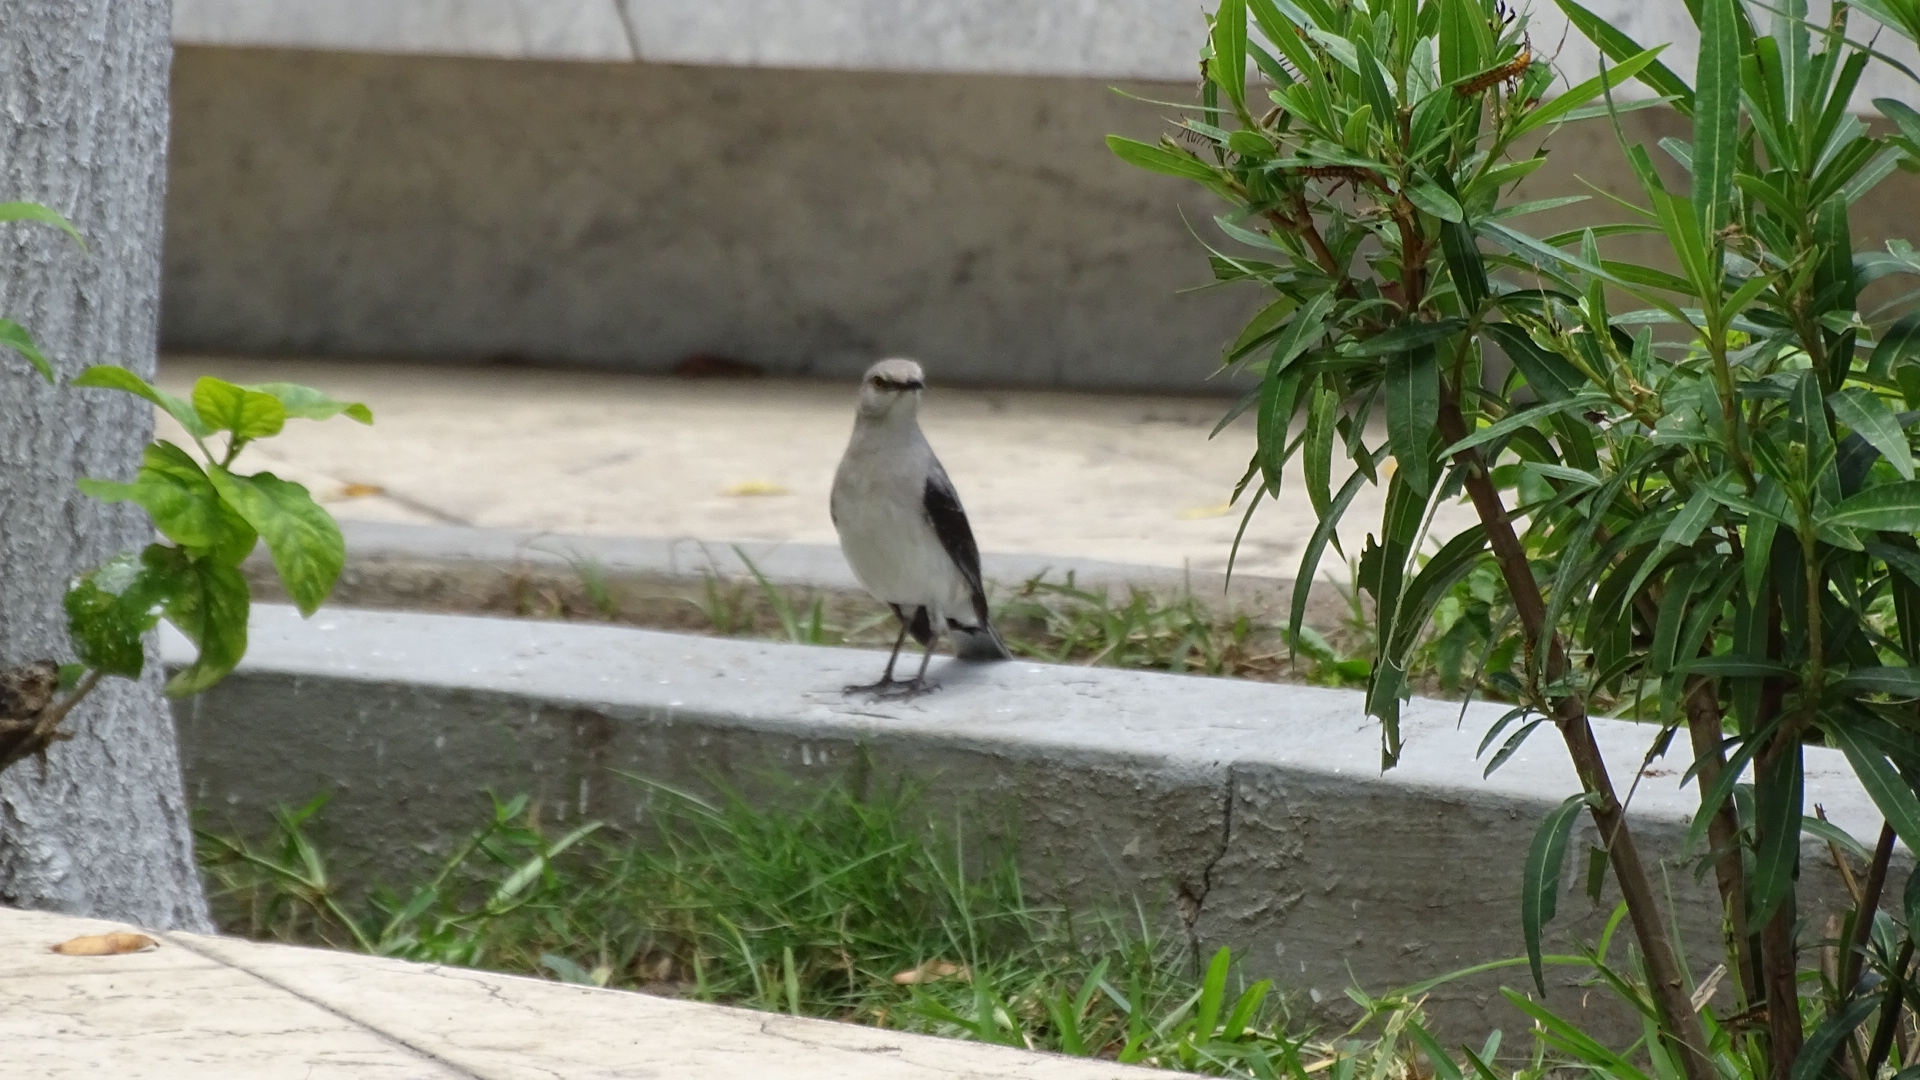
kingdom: Animalia
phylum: Chordata
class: Aves
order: Passeriformes
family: Mimidae
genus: Mimus
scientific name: Mimus gilvus
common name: Tropical mockingbird
